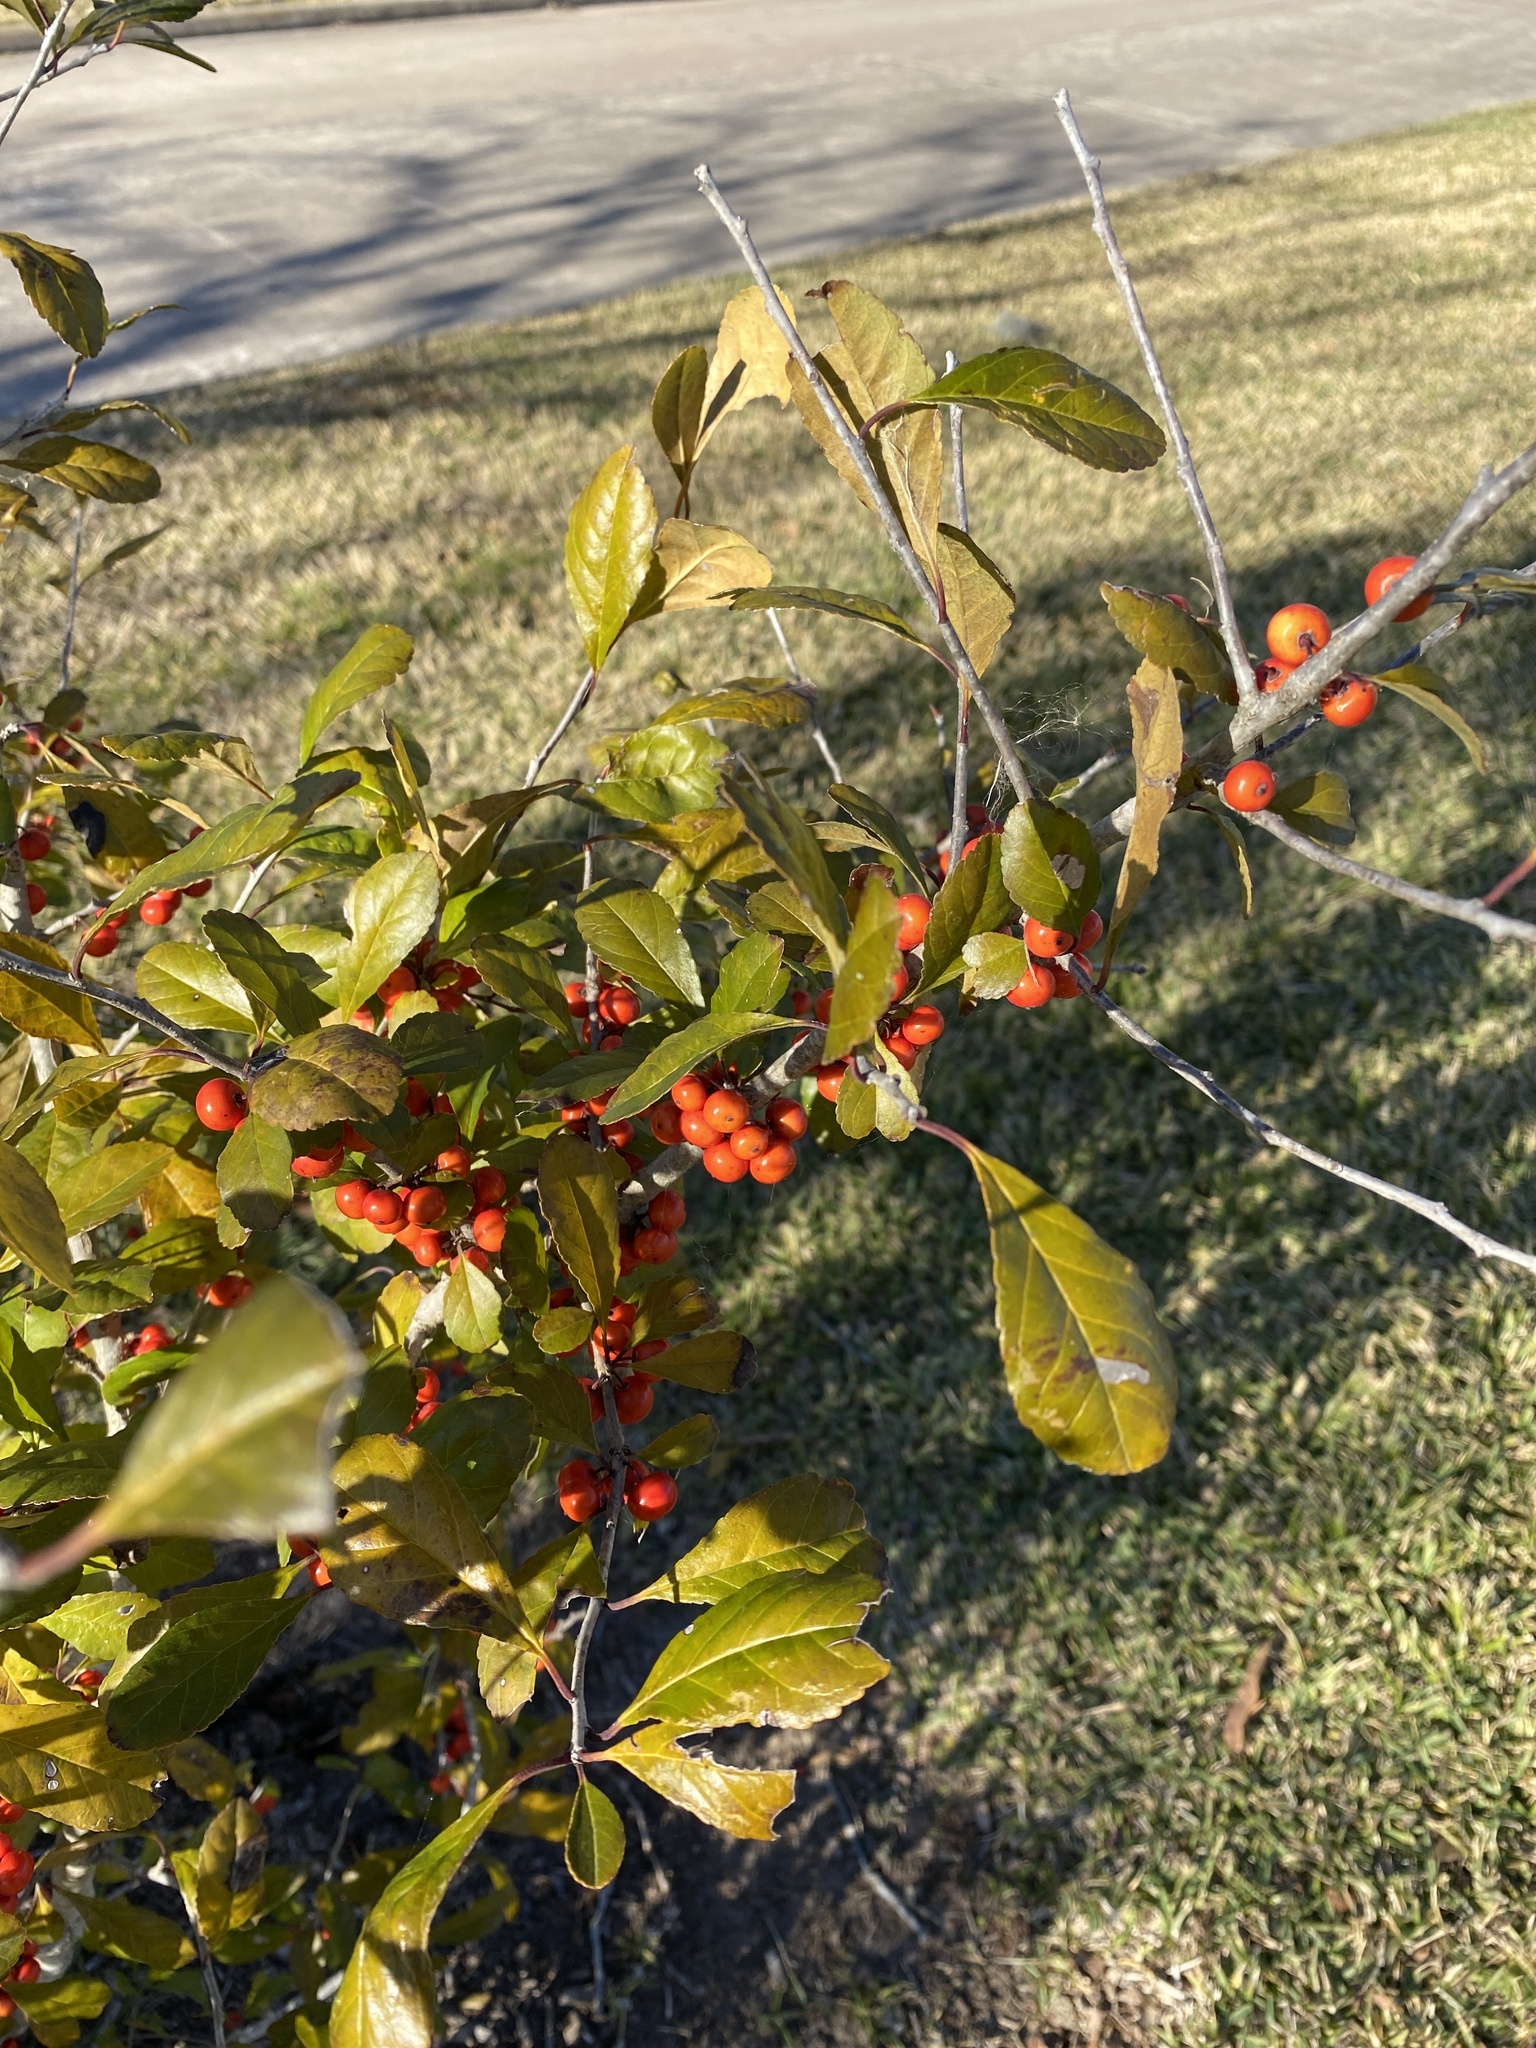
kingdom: Plantae
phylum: Tracheophyta
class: Magnoliopsida
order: Aquifoliales
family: Aquifoliaceae
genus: Ilex
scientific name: Ilex decidua
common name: Possum-haw
